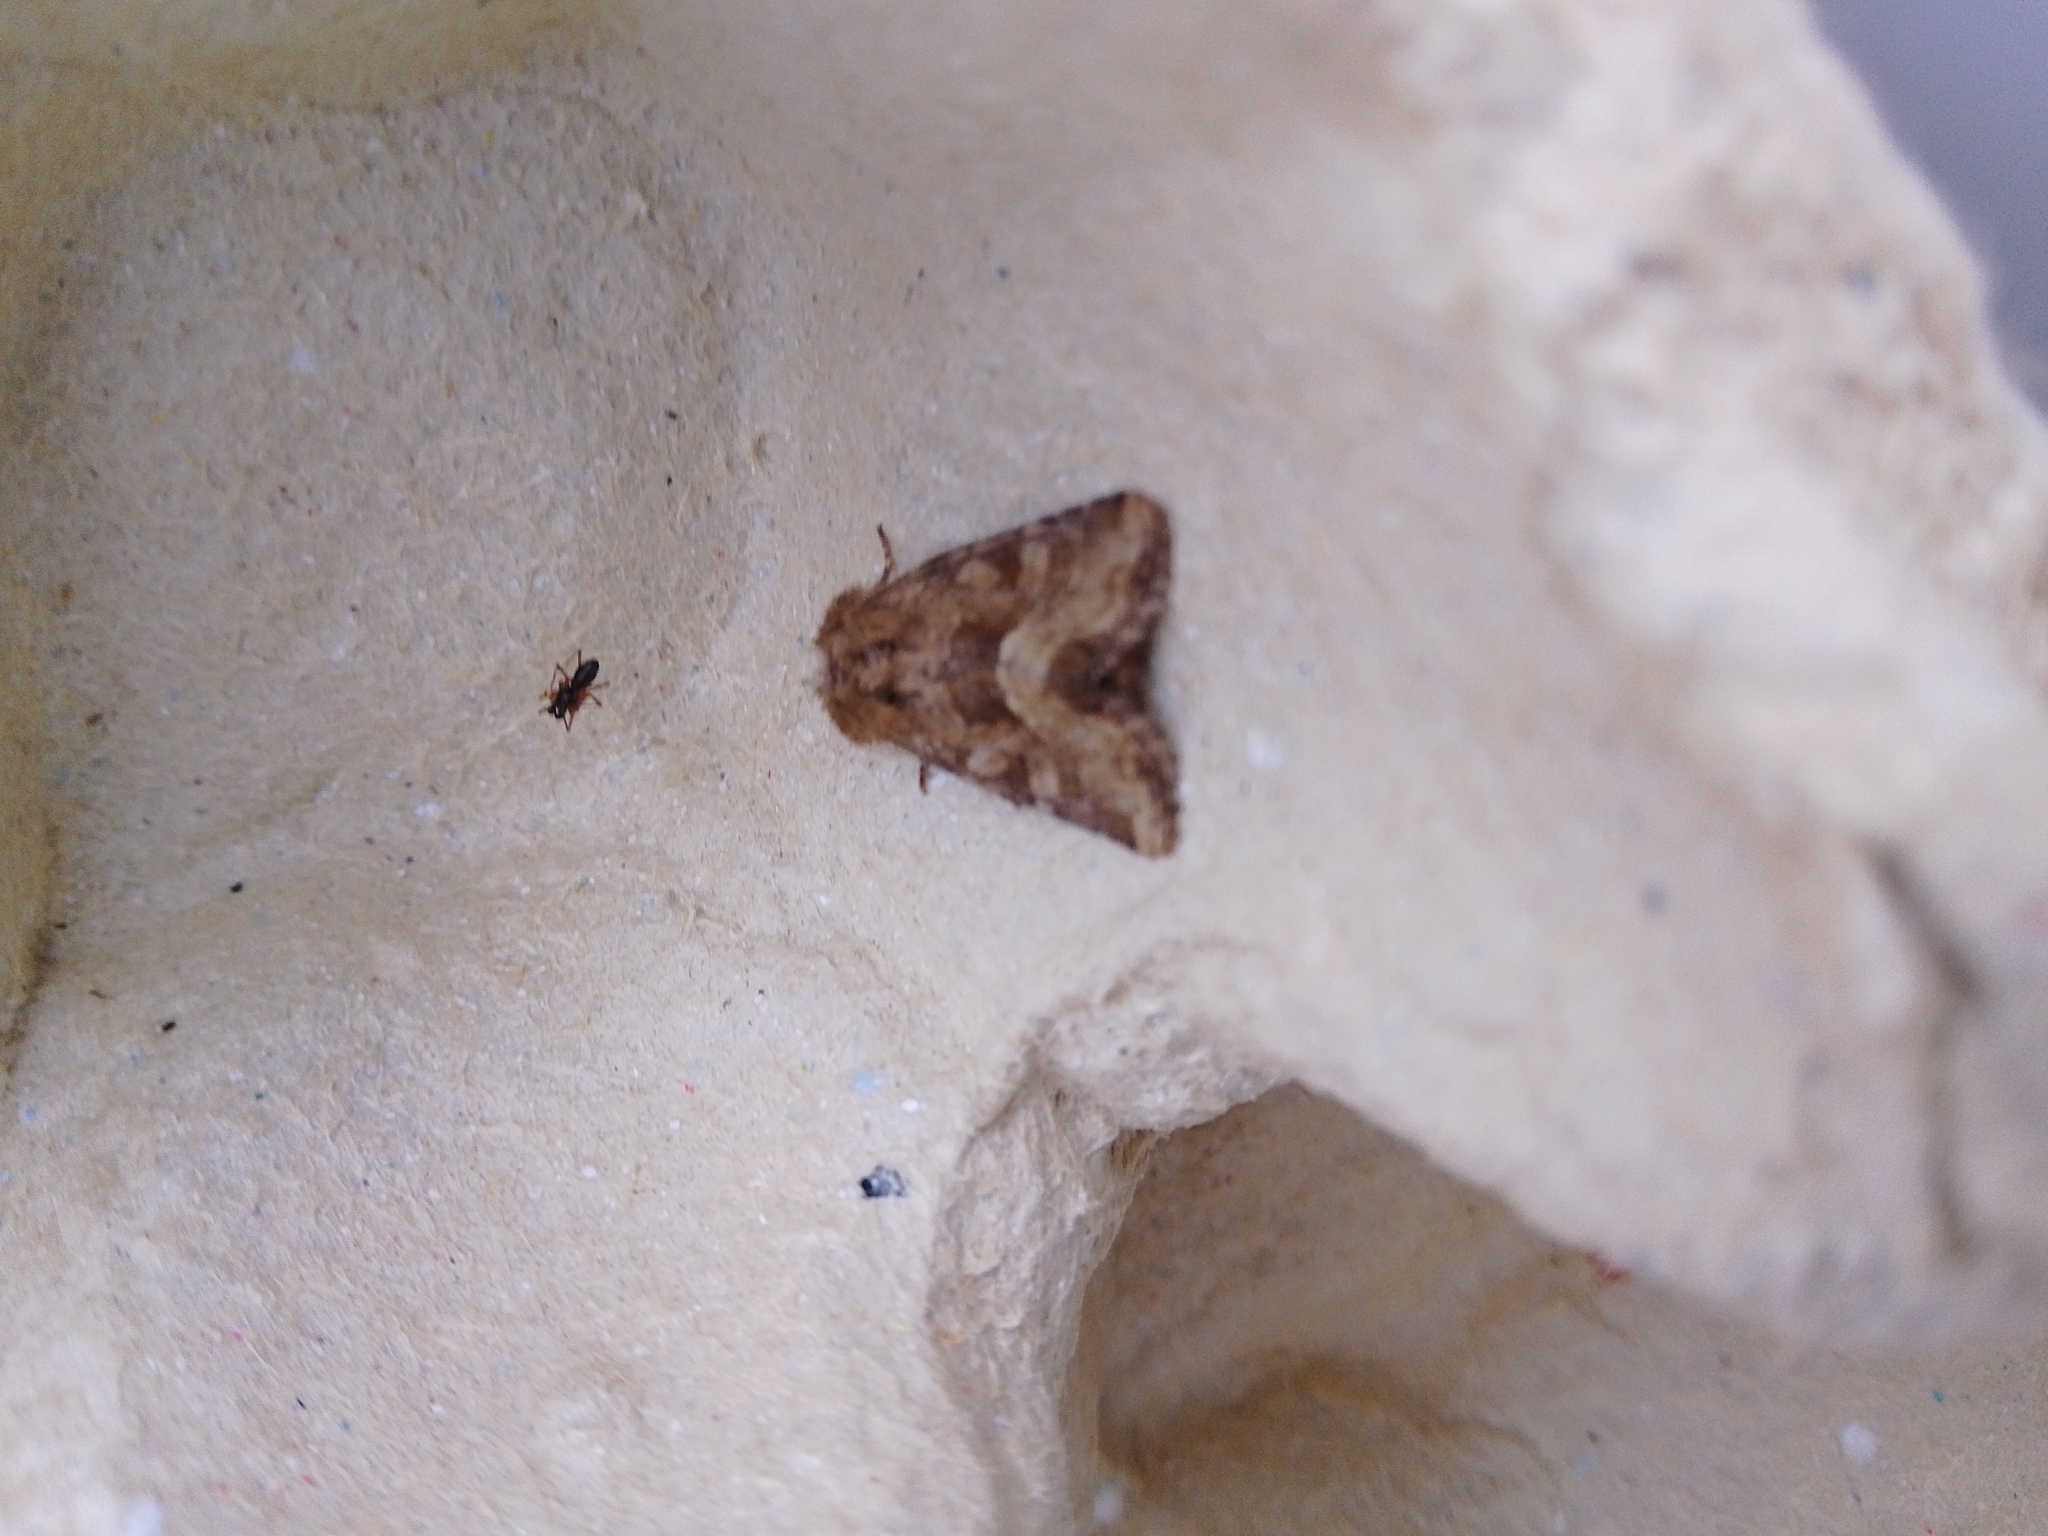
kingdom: Animalia
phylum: Arthropoda
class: Insecta
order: Lepidoptera
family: Noctuidae
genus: Oligia
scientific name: Oligia fasciuncula
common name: Middle-barred minor
